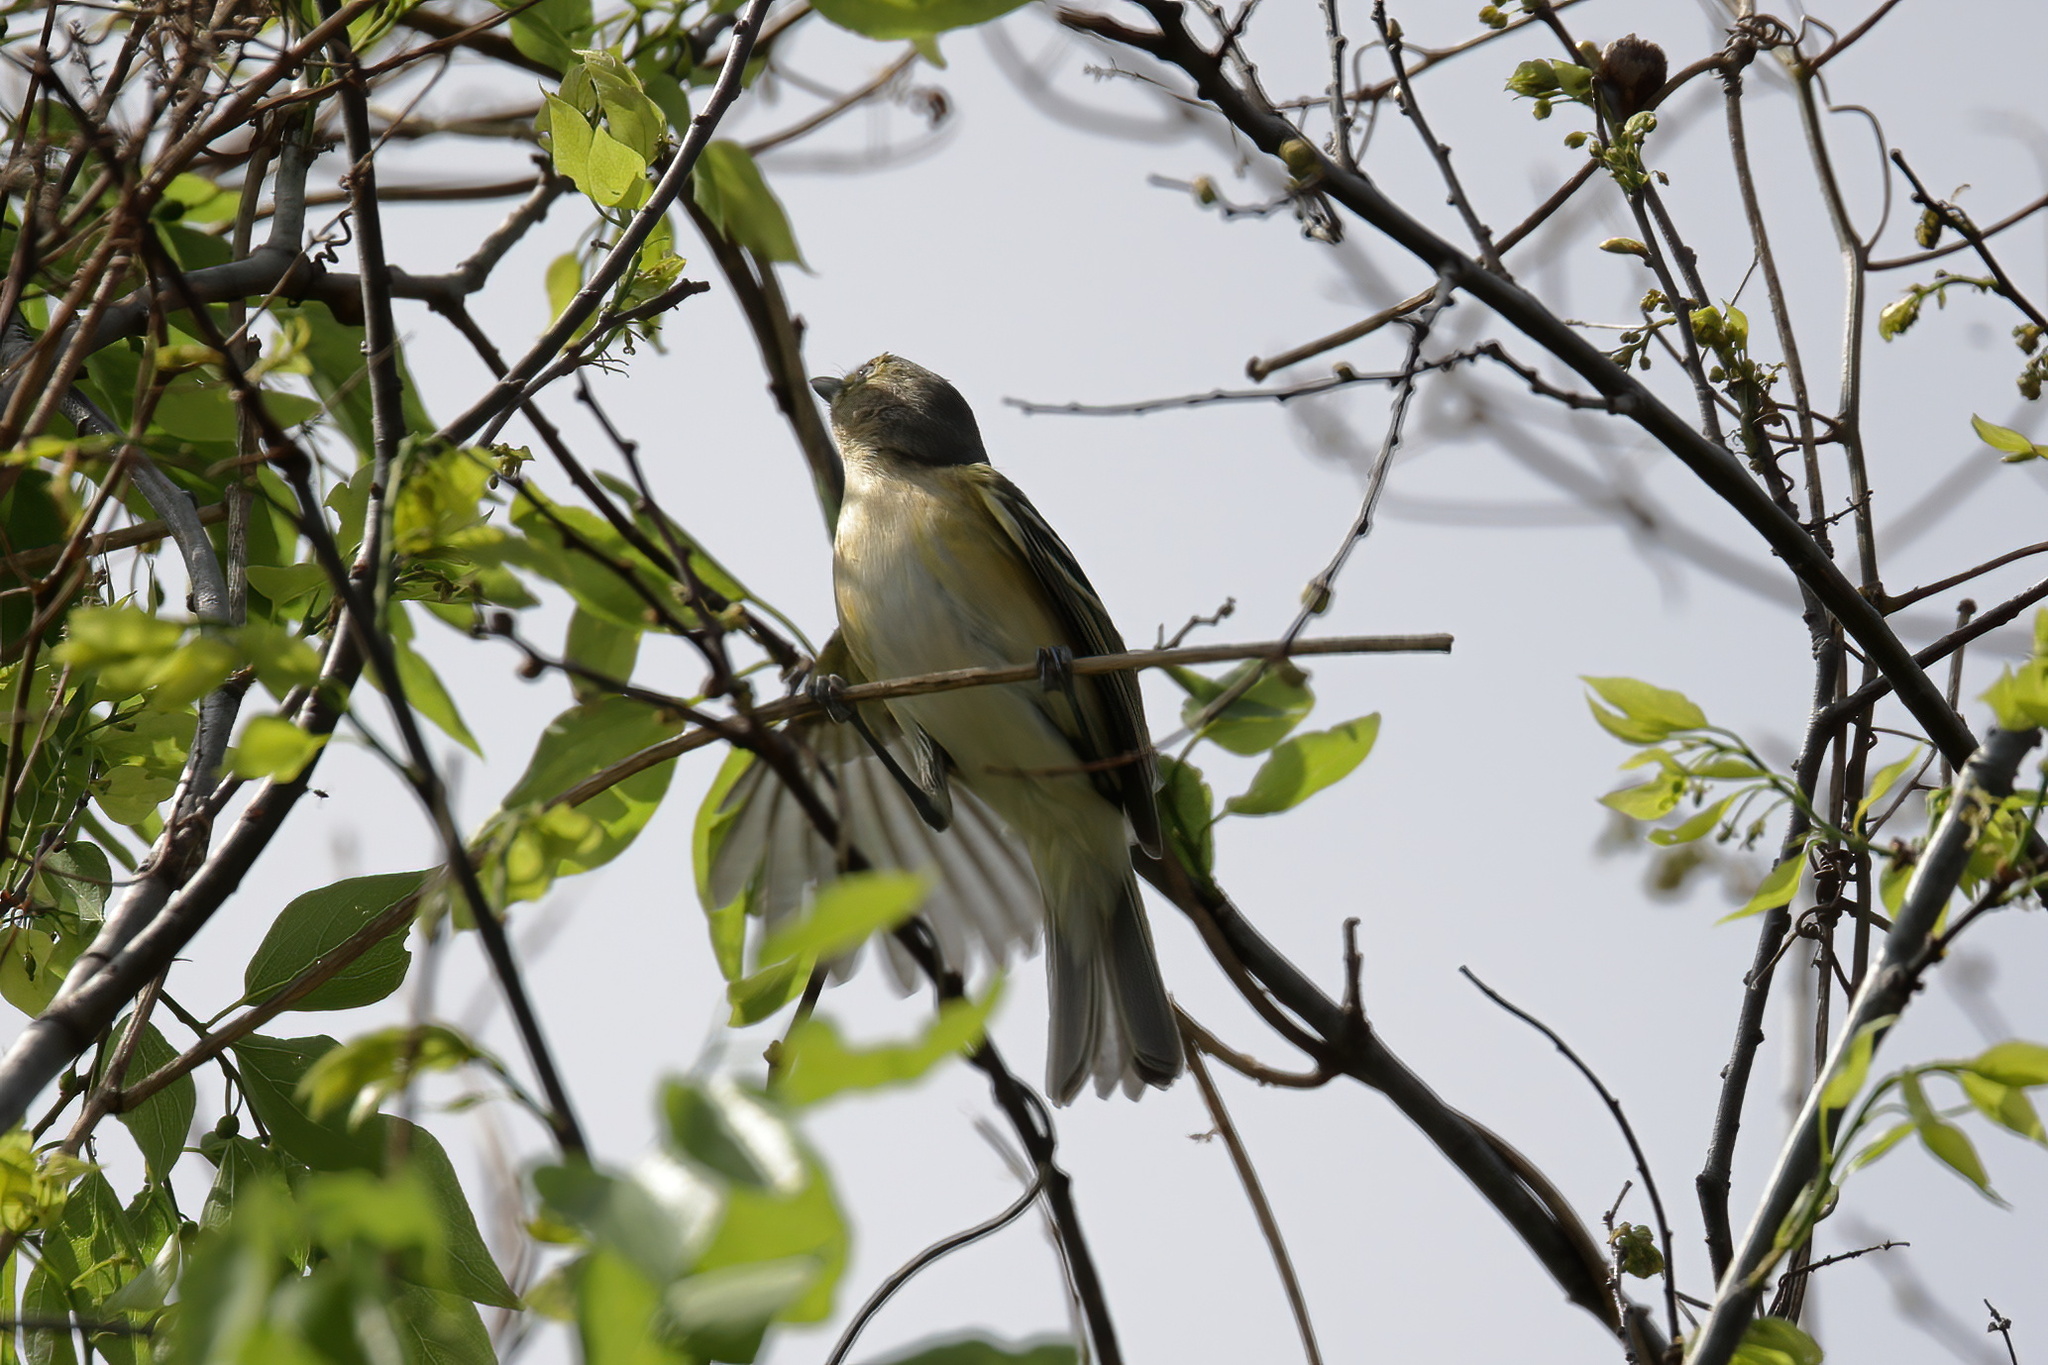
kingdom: Animalia
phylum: Chordata
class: Aves
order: Passeriformes
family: Vireonidae
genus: Vireo
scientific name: Vireo griseus
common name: White-eyed vireo
